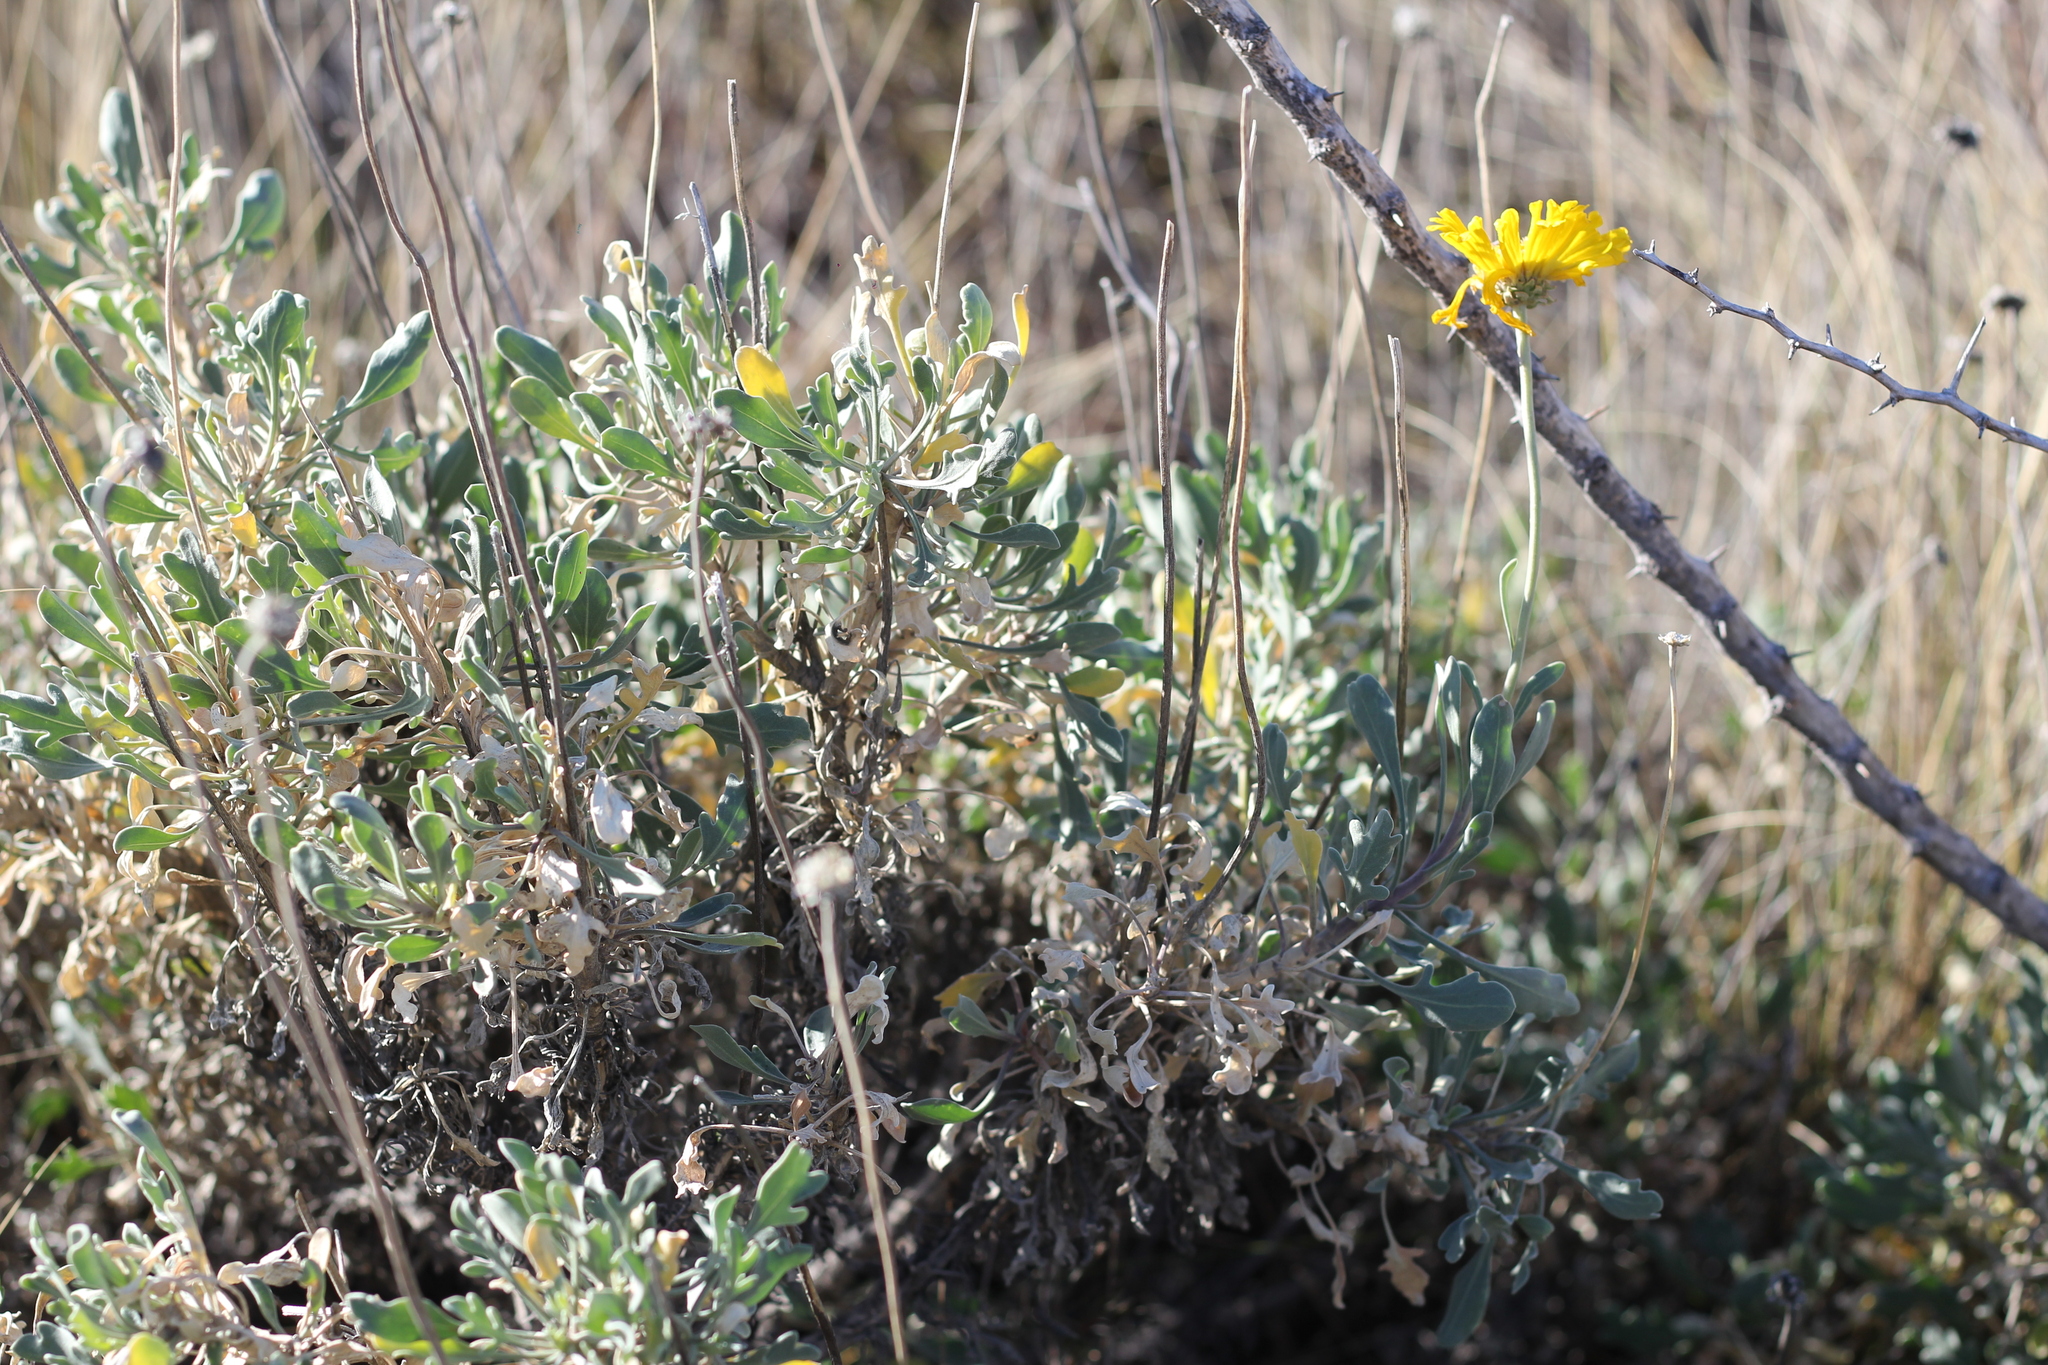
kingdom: Plantae
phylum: Tracheophyta
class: Magnoliopsida
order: Asterales
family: Asteraceae
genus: Gaillardia
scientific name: Gaillardia cabrerae
